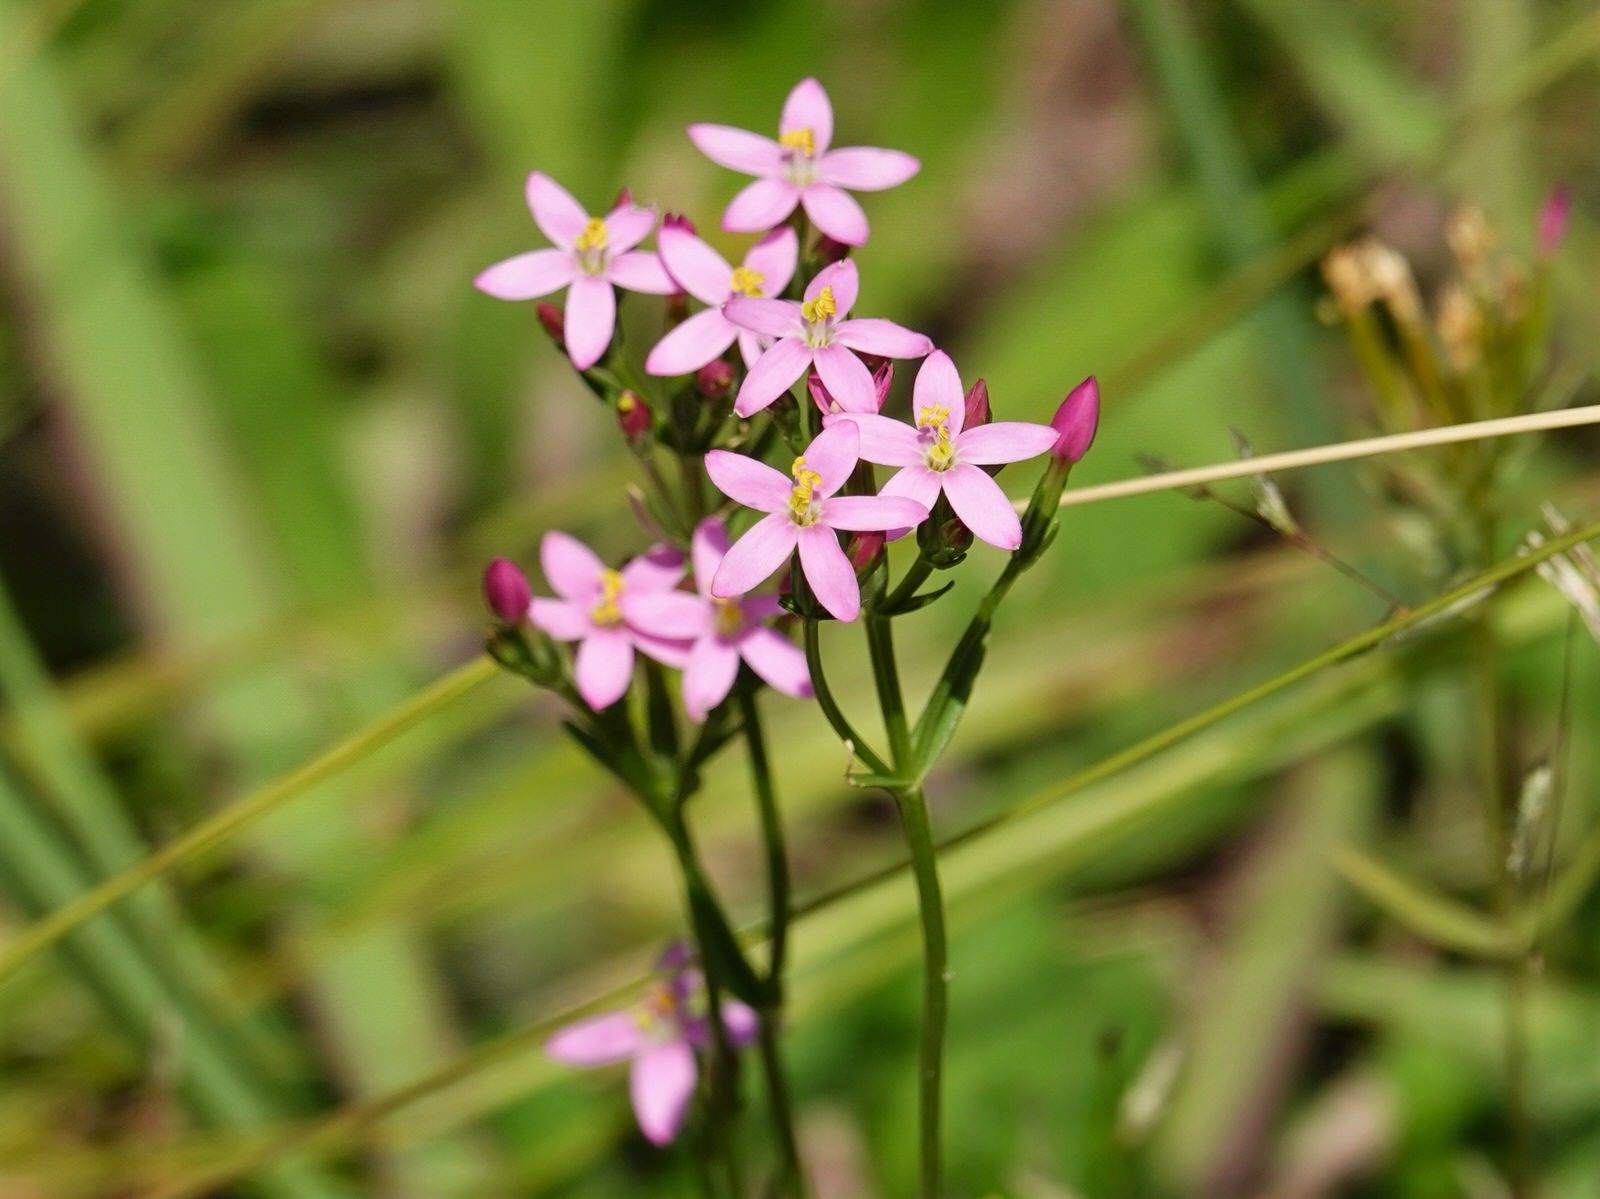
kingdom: Plantae
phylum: Tracheophyta
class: Magnoliopsida
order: Gentianales
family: Gentianaceae
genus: Centaurium
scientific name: Centaurium erythraea
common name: Common centaury
